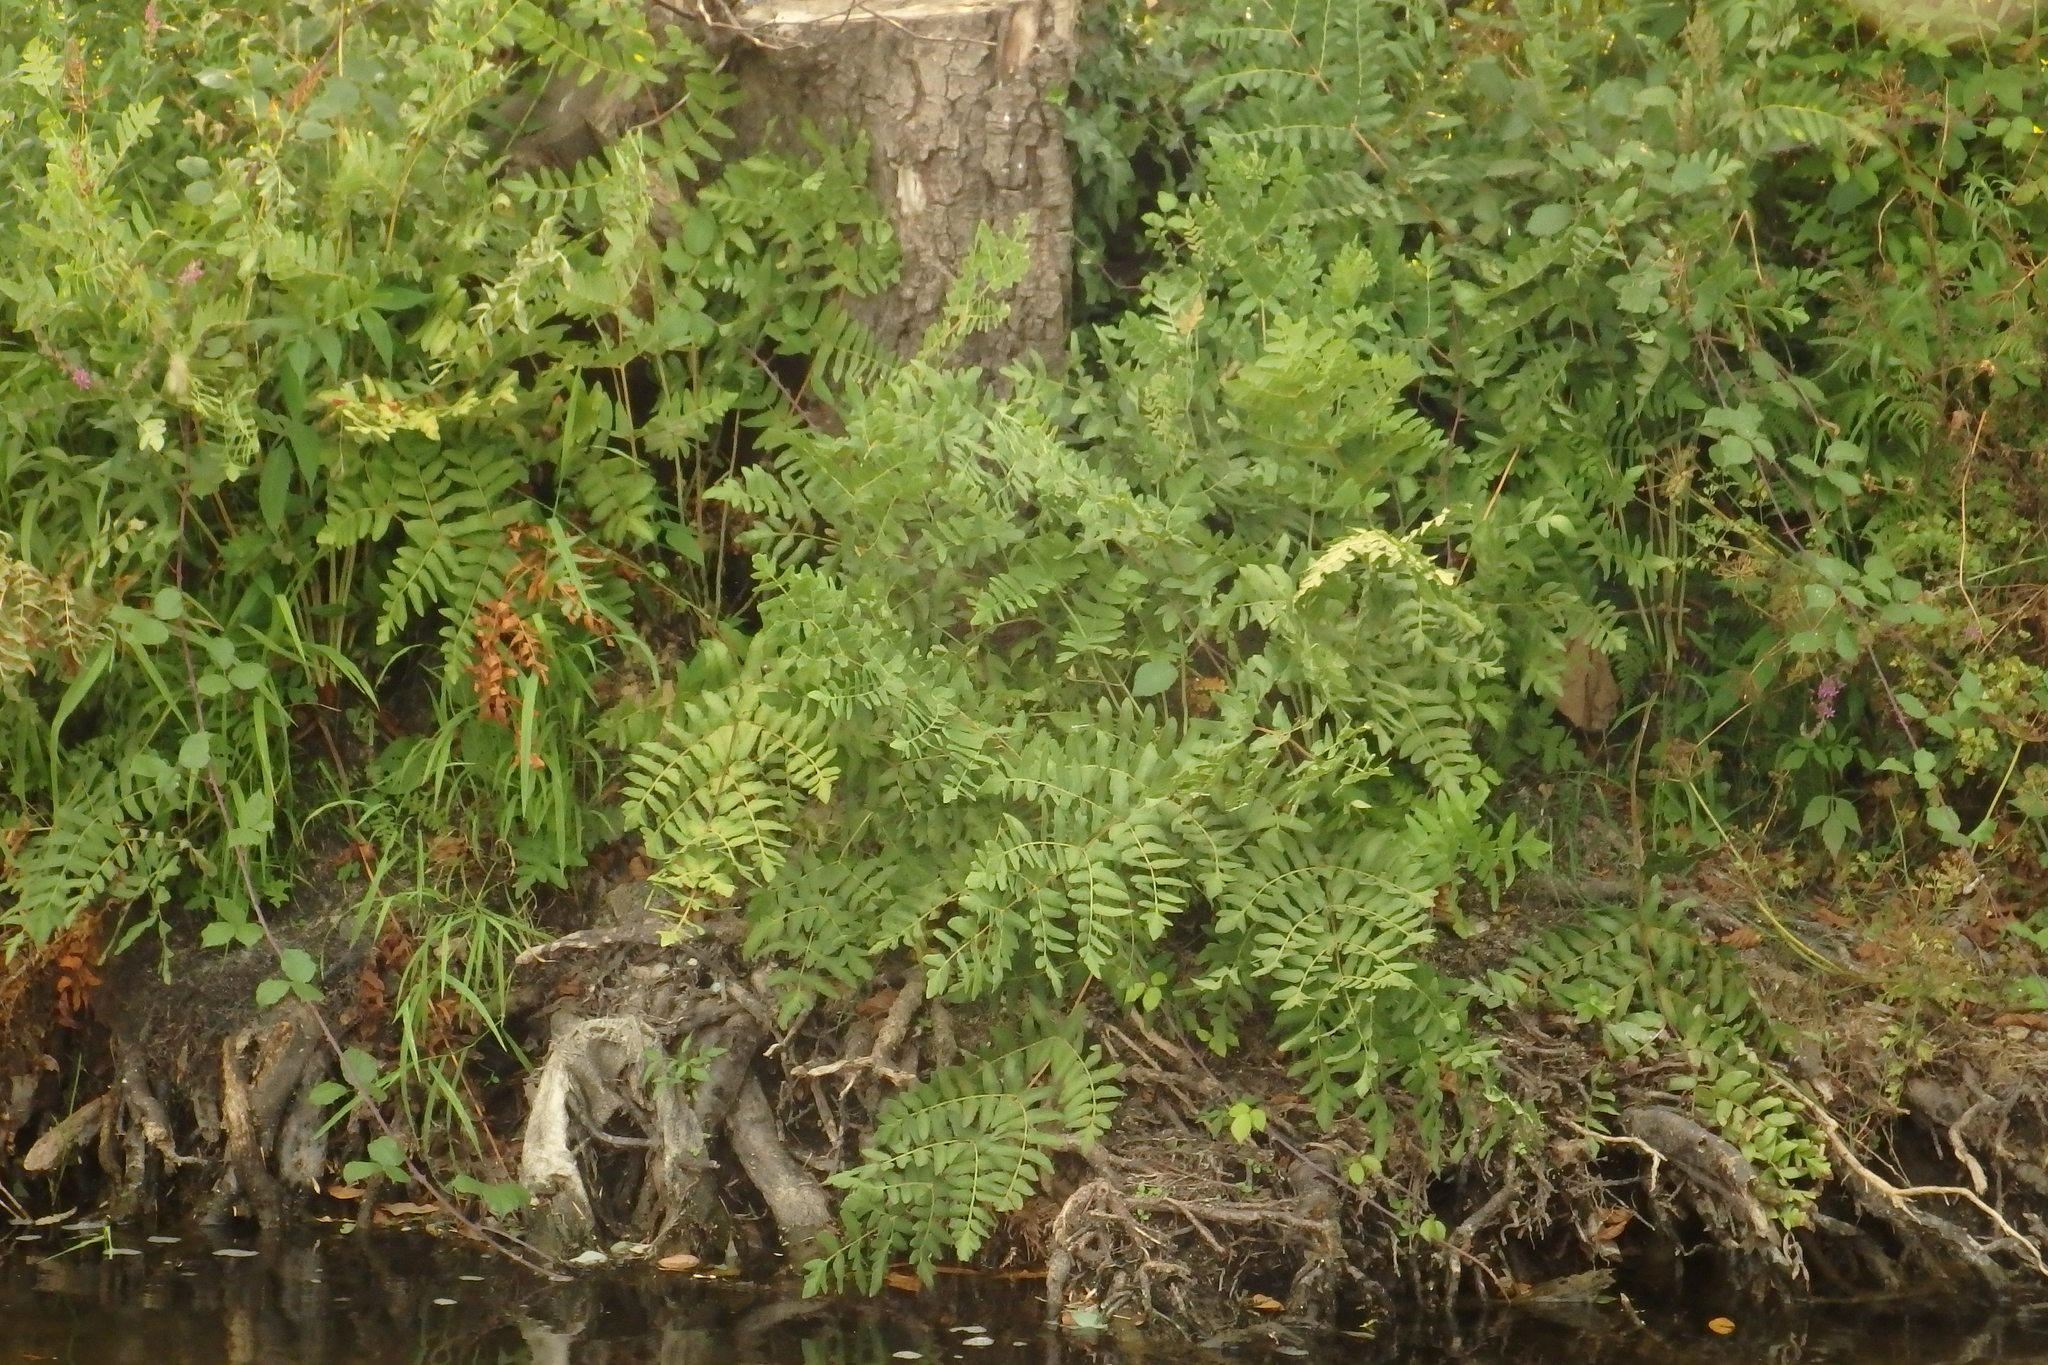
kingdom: Plantae
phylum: Tracheophyta
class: Polypodiopsida
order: Osmundales
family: Osmundaceae
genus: Osmunda
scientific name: Osmunda regalis
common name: Royal fern
